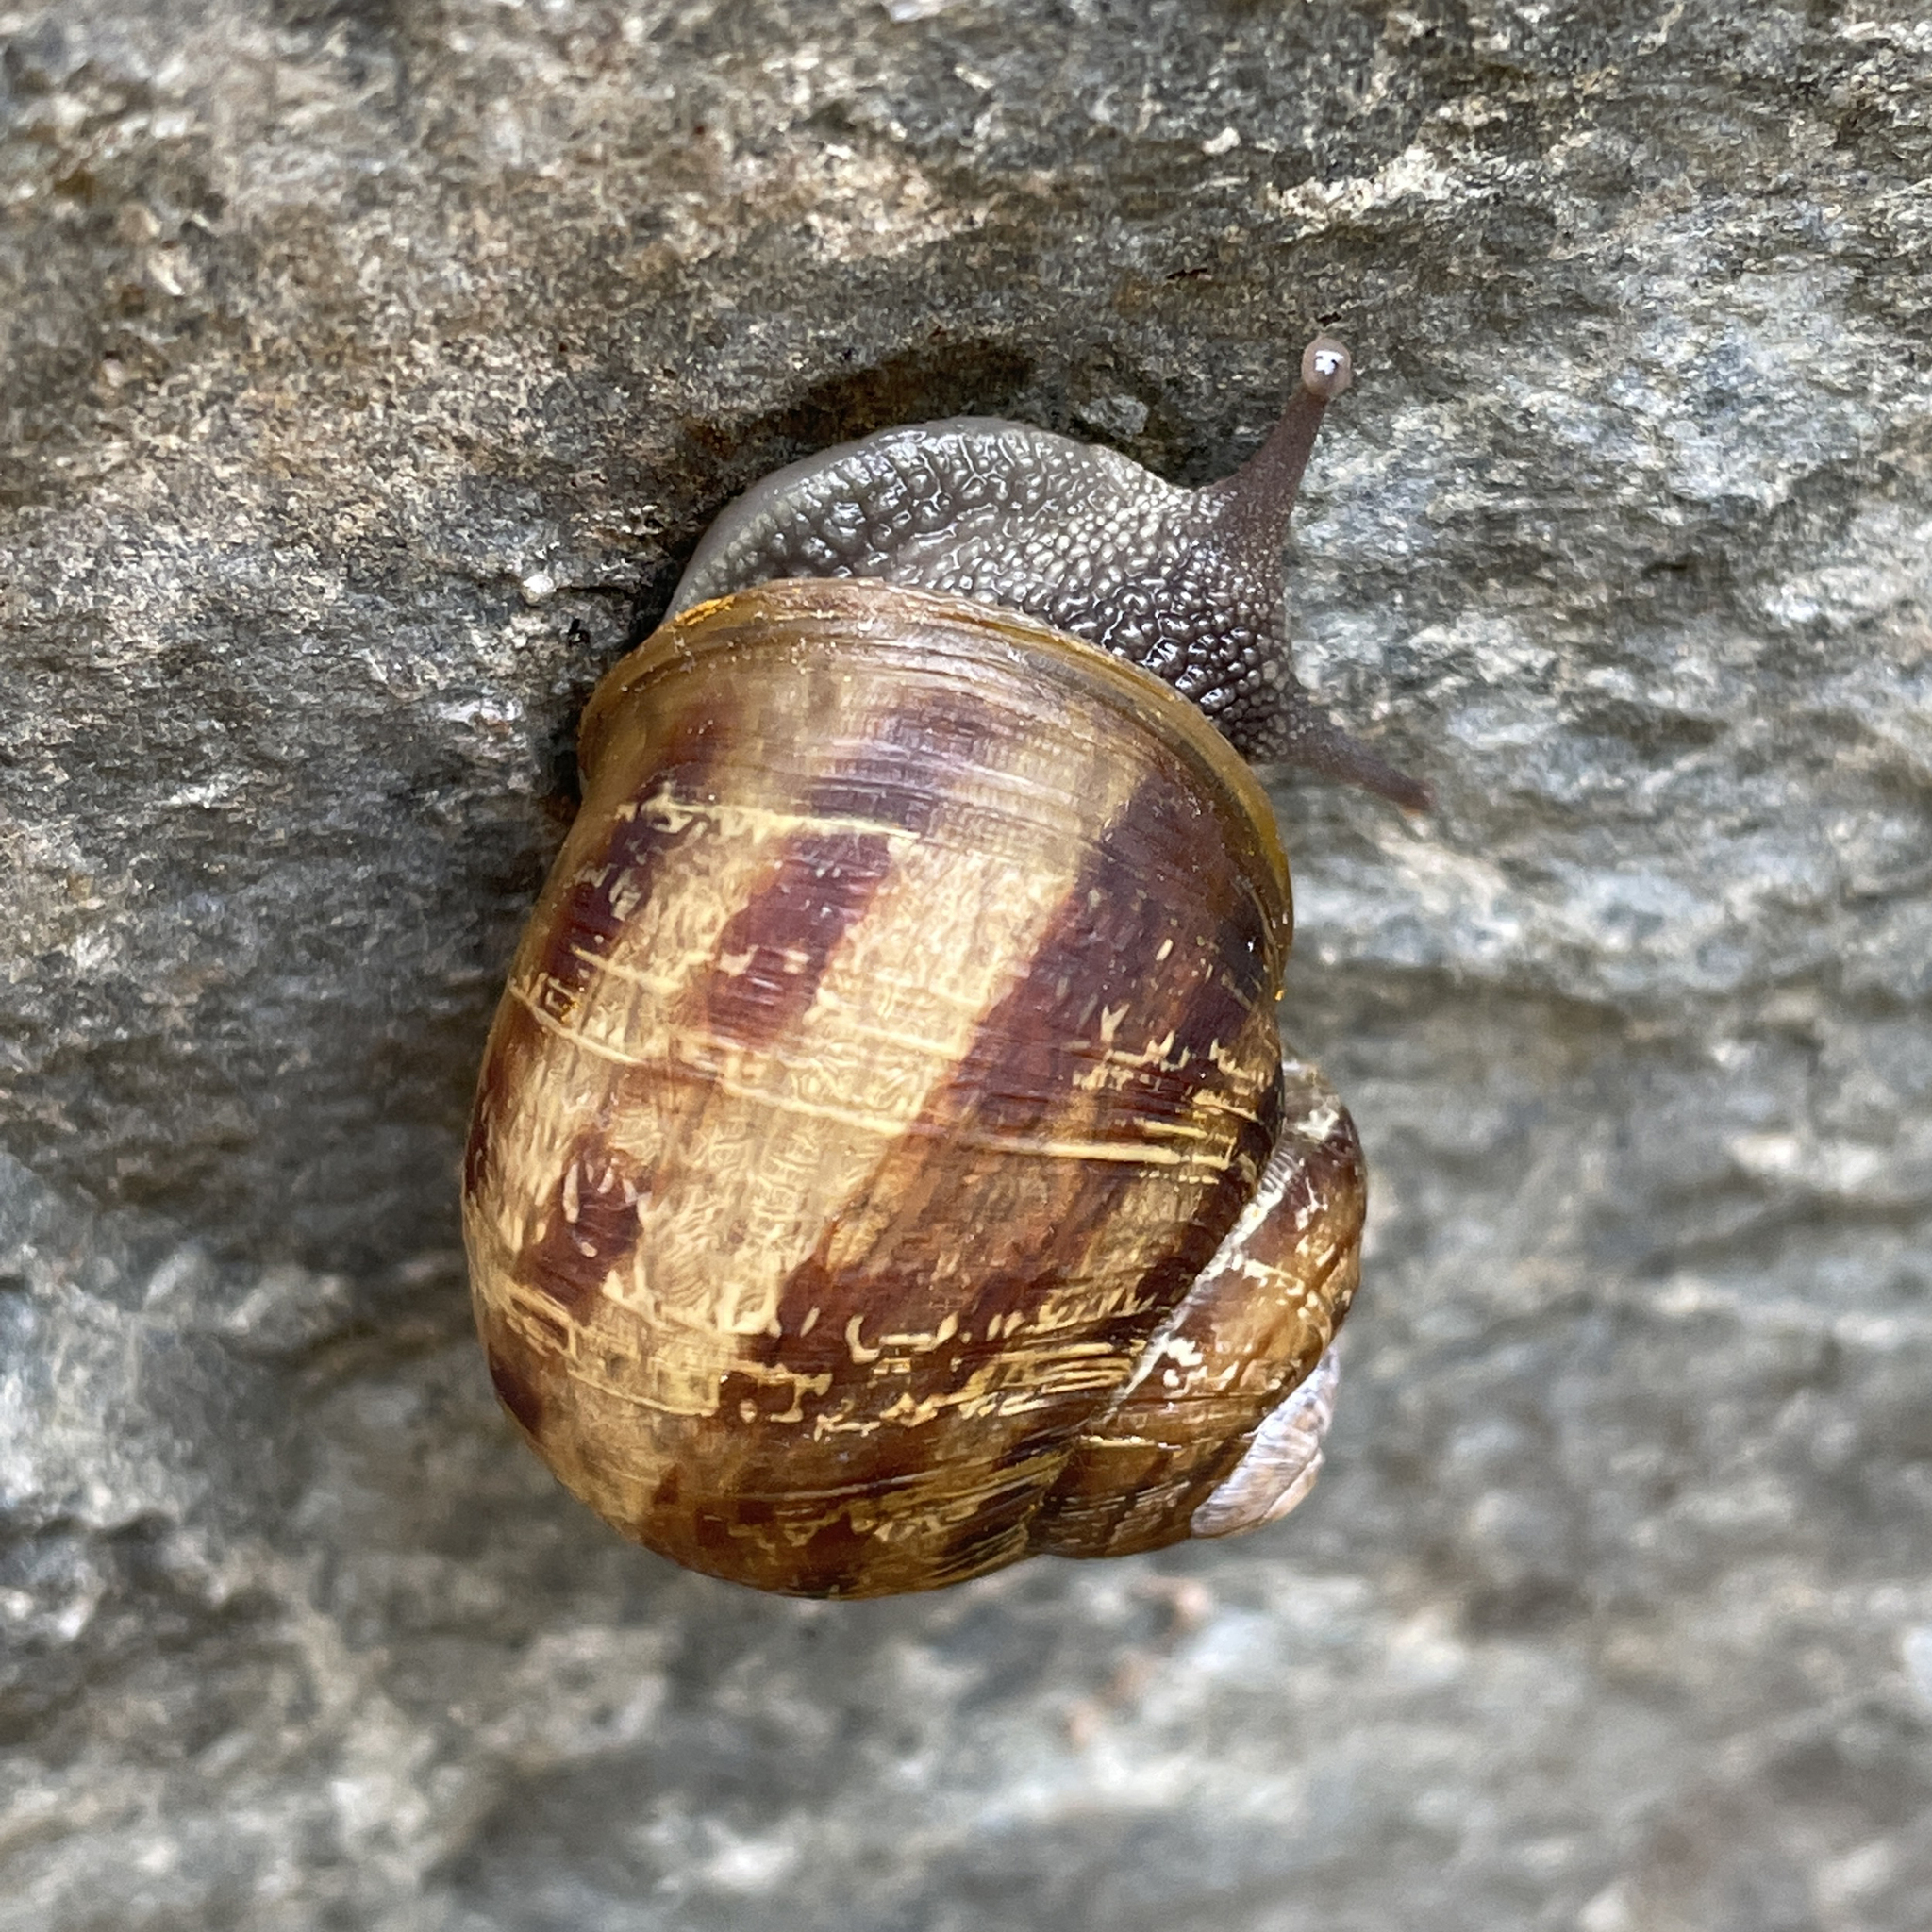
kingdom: Animalia
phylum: Mollusca
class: Gastropoda
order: Stylommatophora
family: Helicidae
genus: Cornu
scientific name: Cornu aspersum
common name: Brown garden snail
